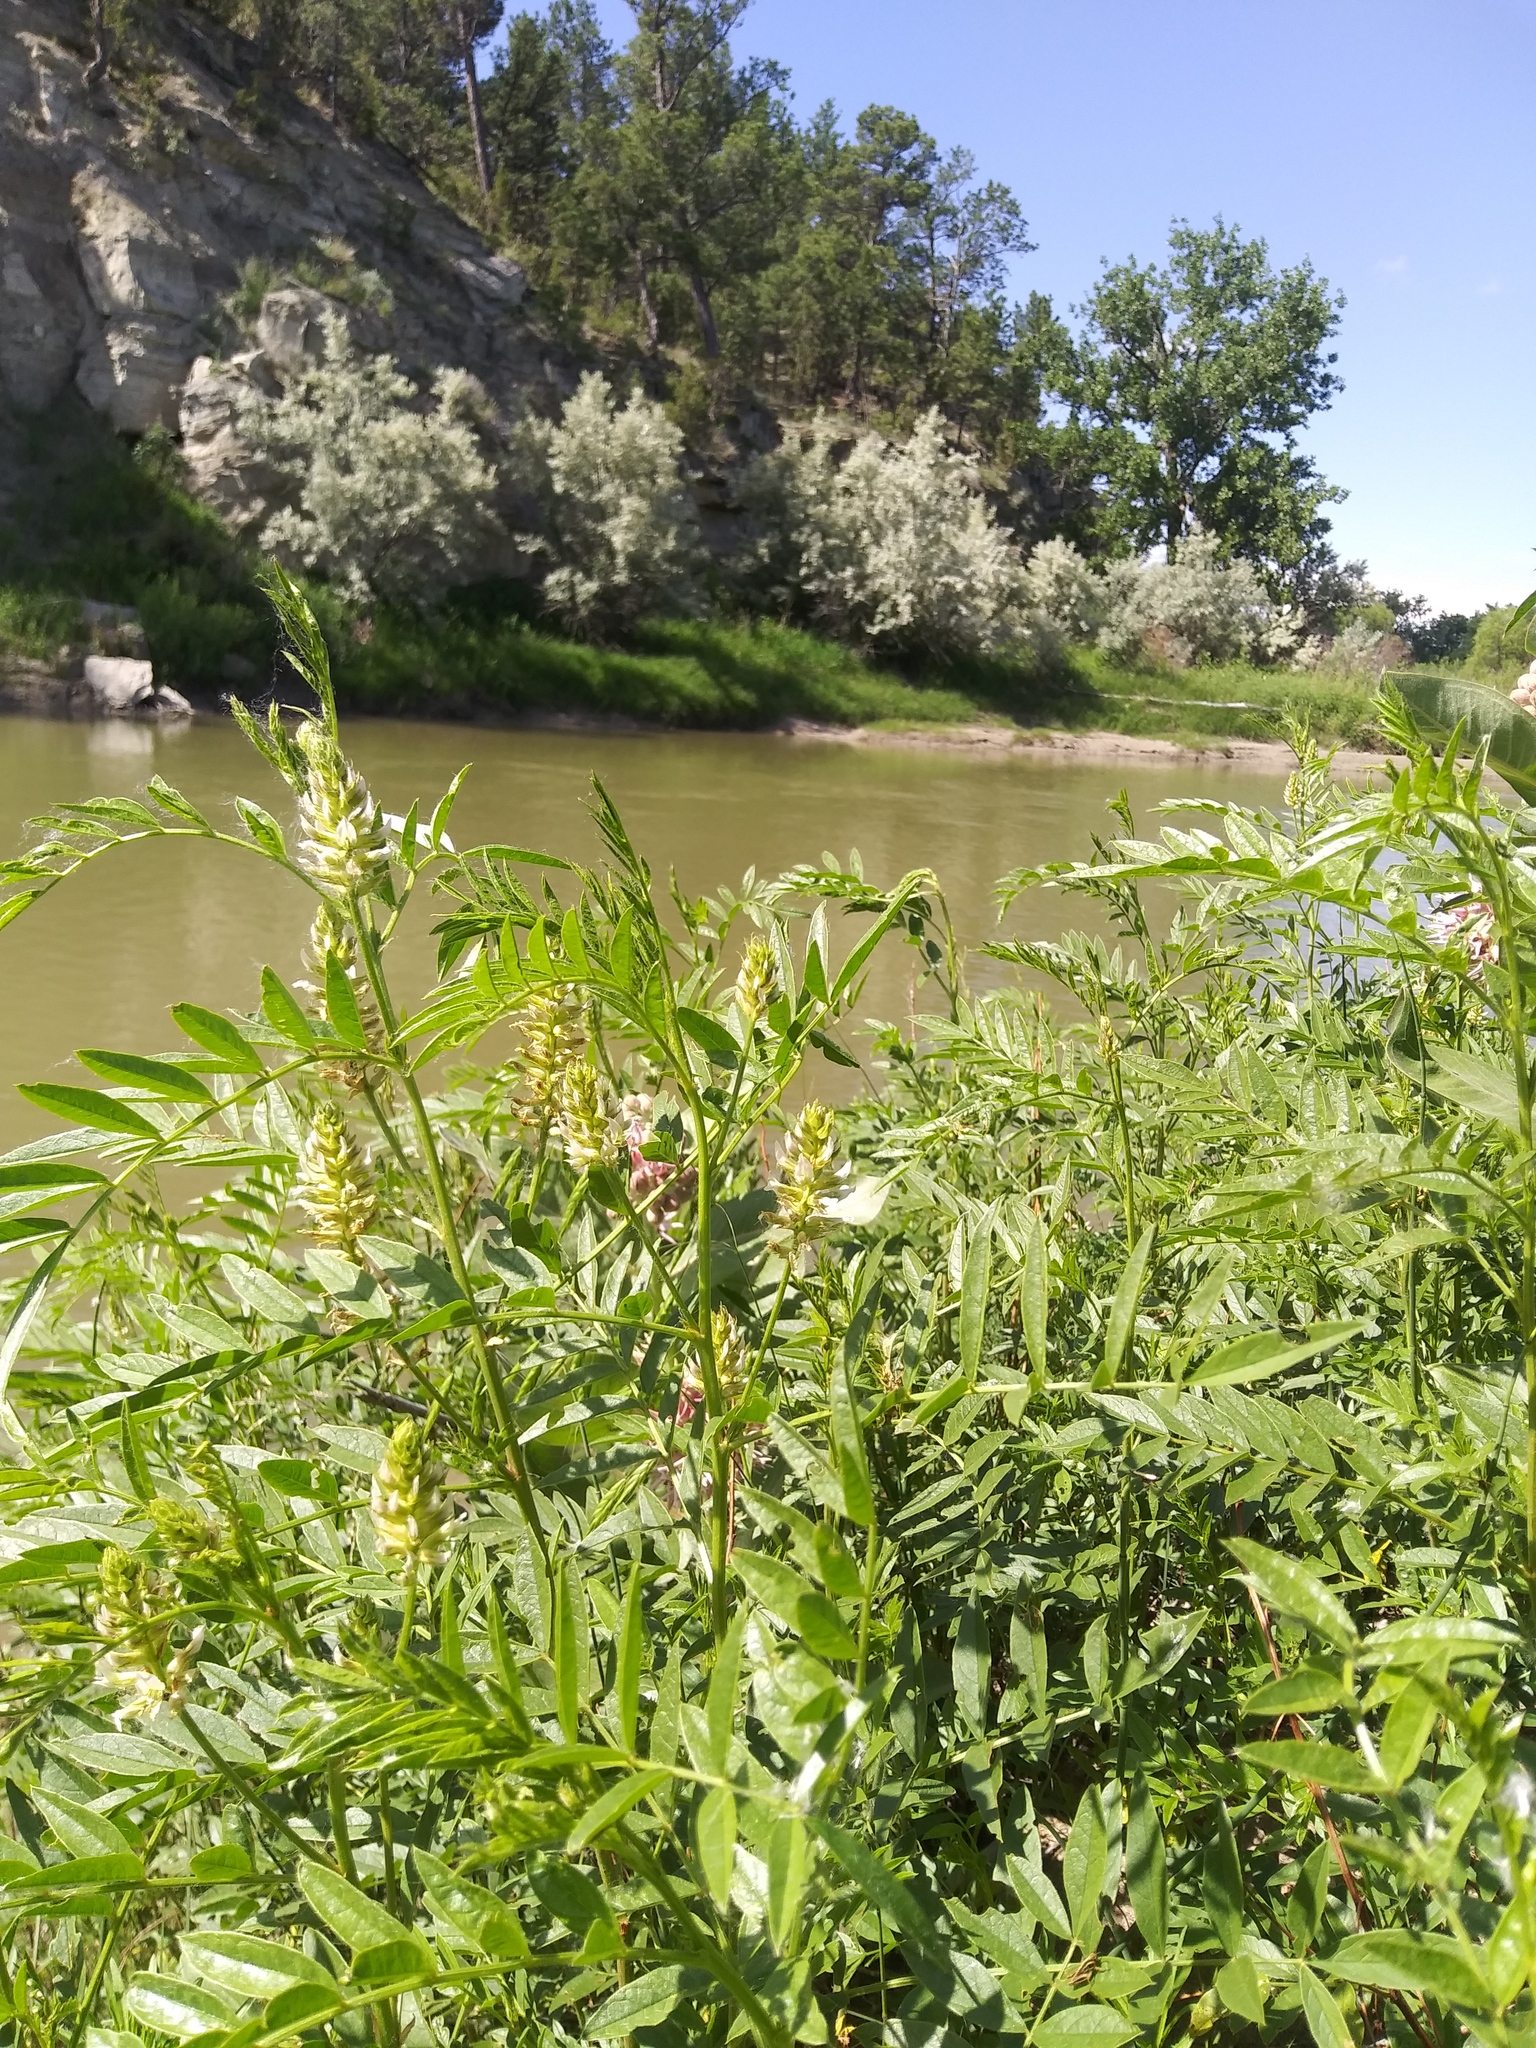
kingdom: Plantae
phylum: Tracheophyta
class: Magnoliopsida
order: Fabales
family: Fabaceae
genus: Glycyrrhiza
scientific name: Glycyrrhiza lepidota
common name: American liquorice
